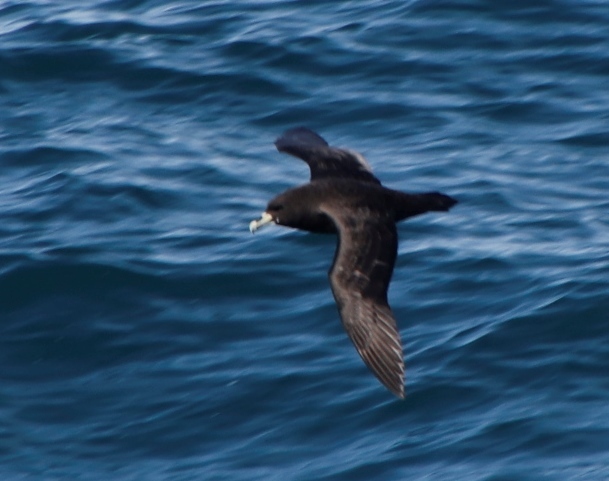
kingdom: Animalia
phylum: Chordata
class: Aves
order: Procellariiformes
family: Procellariidae
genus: Procellaria
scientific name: Procellaria aequinoctialis
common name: White-chinned petrel
